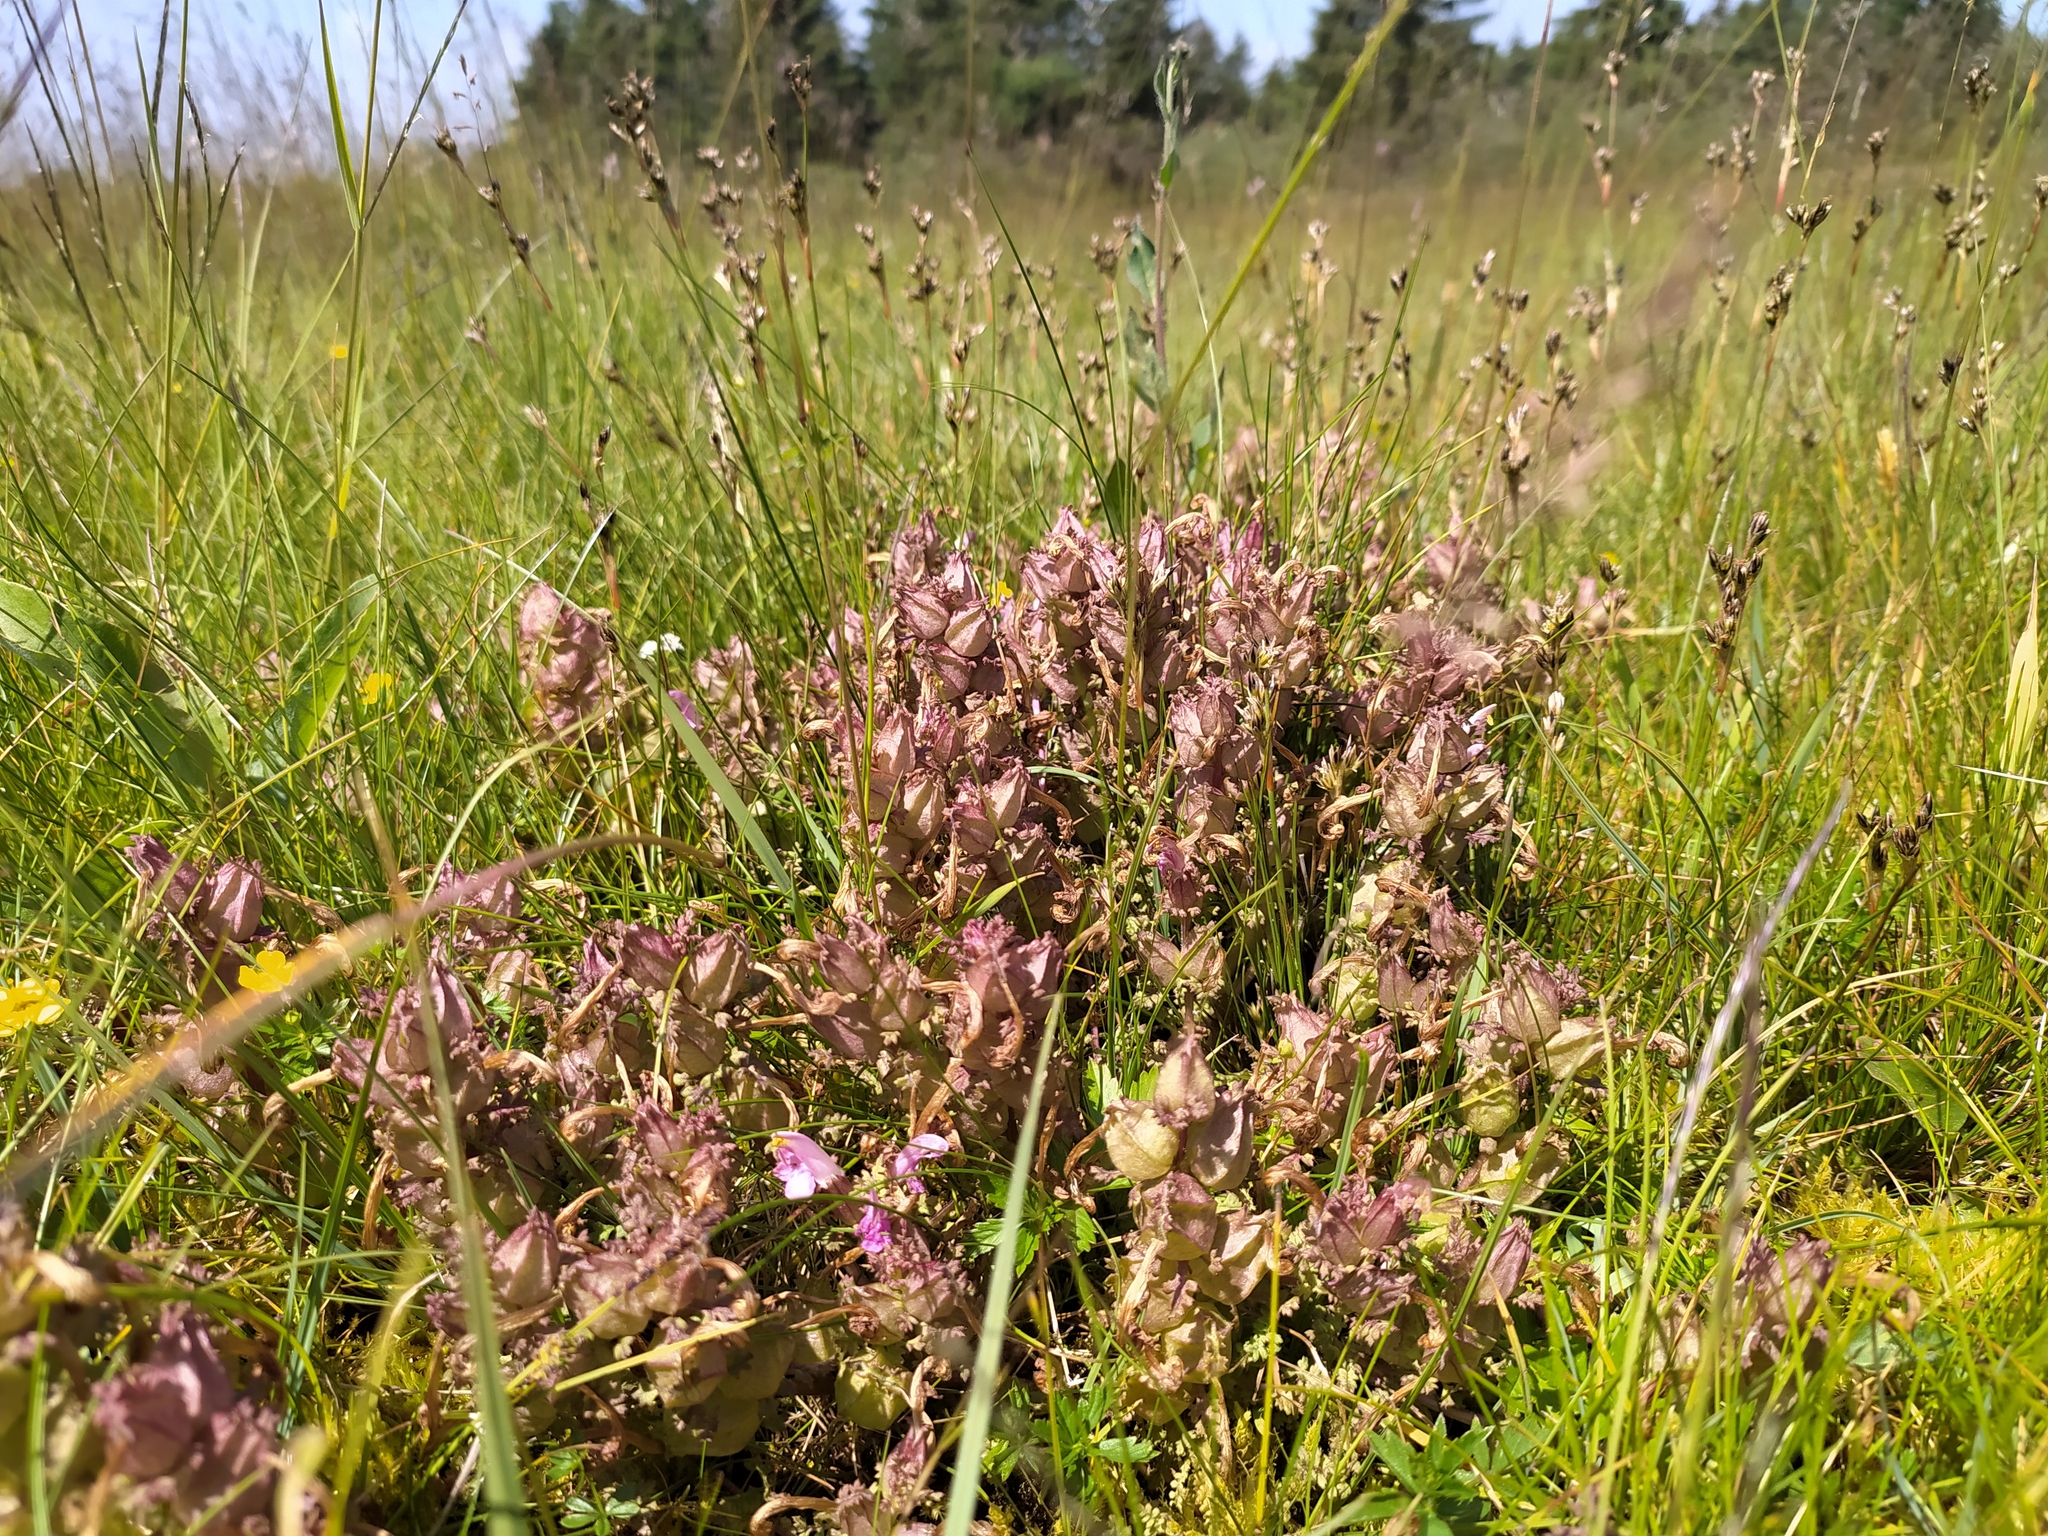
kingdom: Plantae
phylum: Tracheophyta
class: Magnoliopsida
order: Lamiales
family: Orobanchaceae
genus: Pedicularis
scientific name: Pedicularis sylvatica
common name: Lousewort
